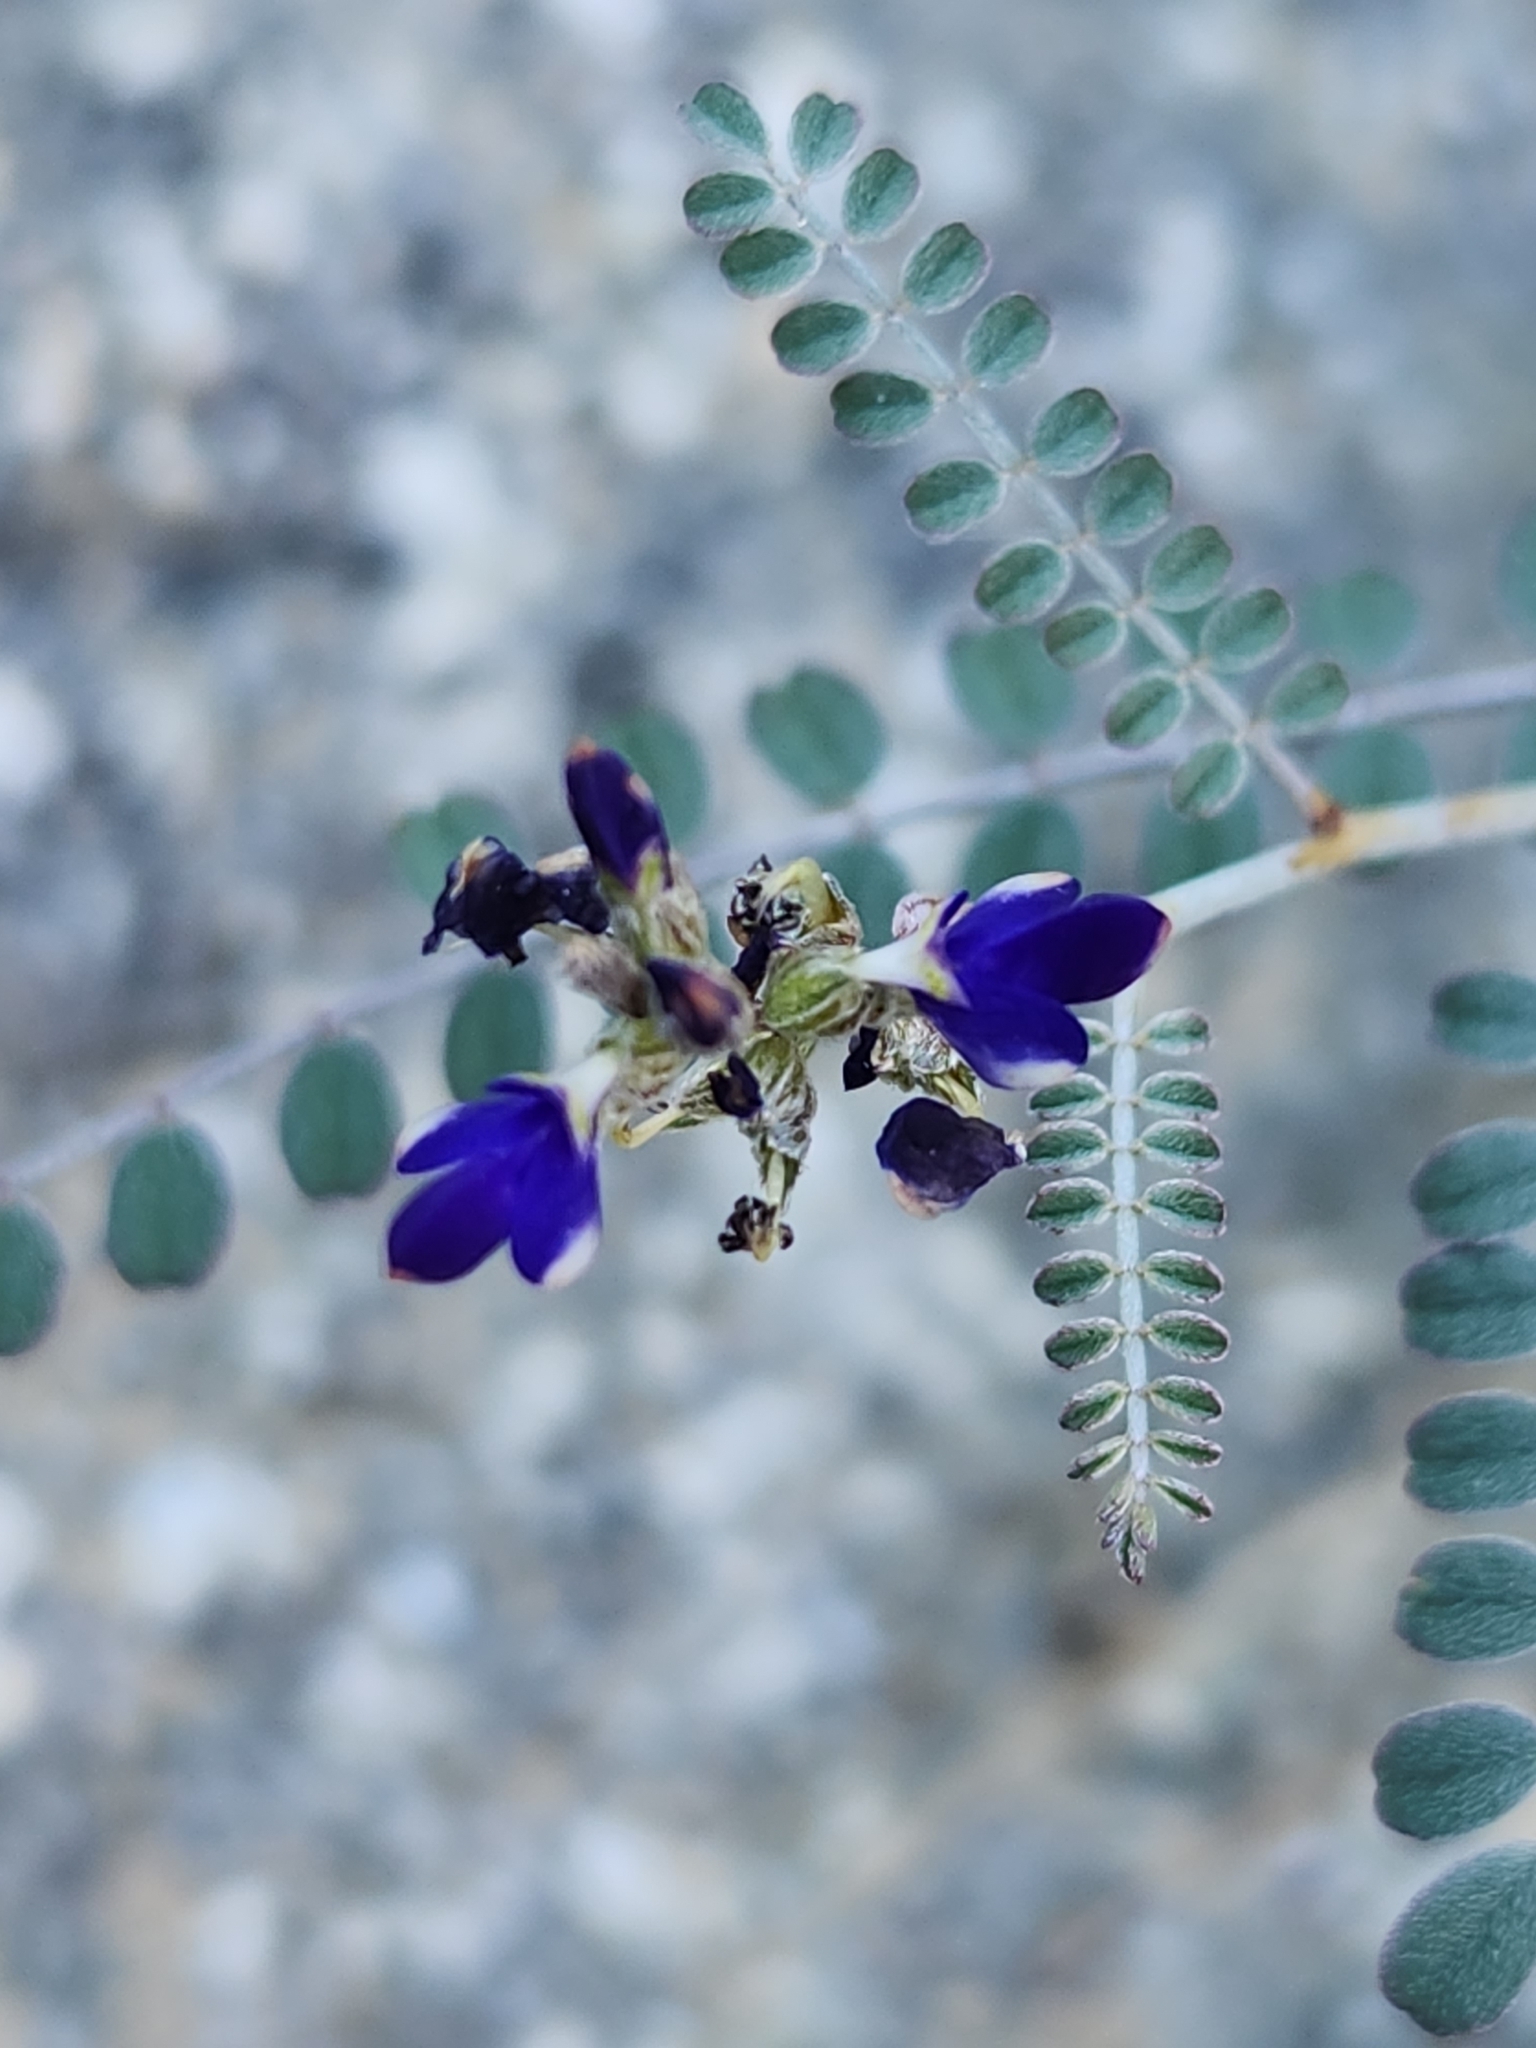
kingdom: Plantae
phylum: Tracheophyta
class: Magnoliopsida
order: Fabales
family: Fabaceae
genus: Marina
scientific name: Marina parryi
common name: Parry's marina
